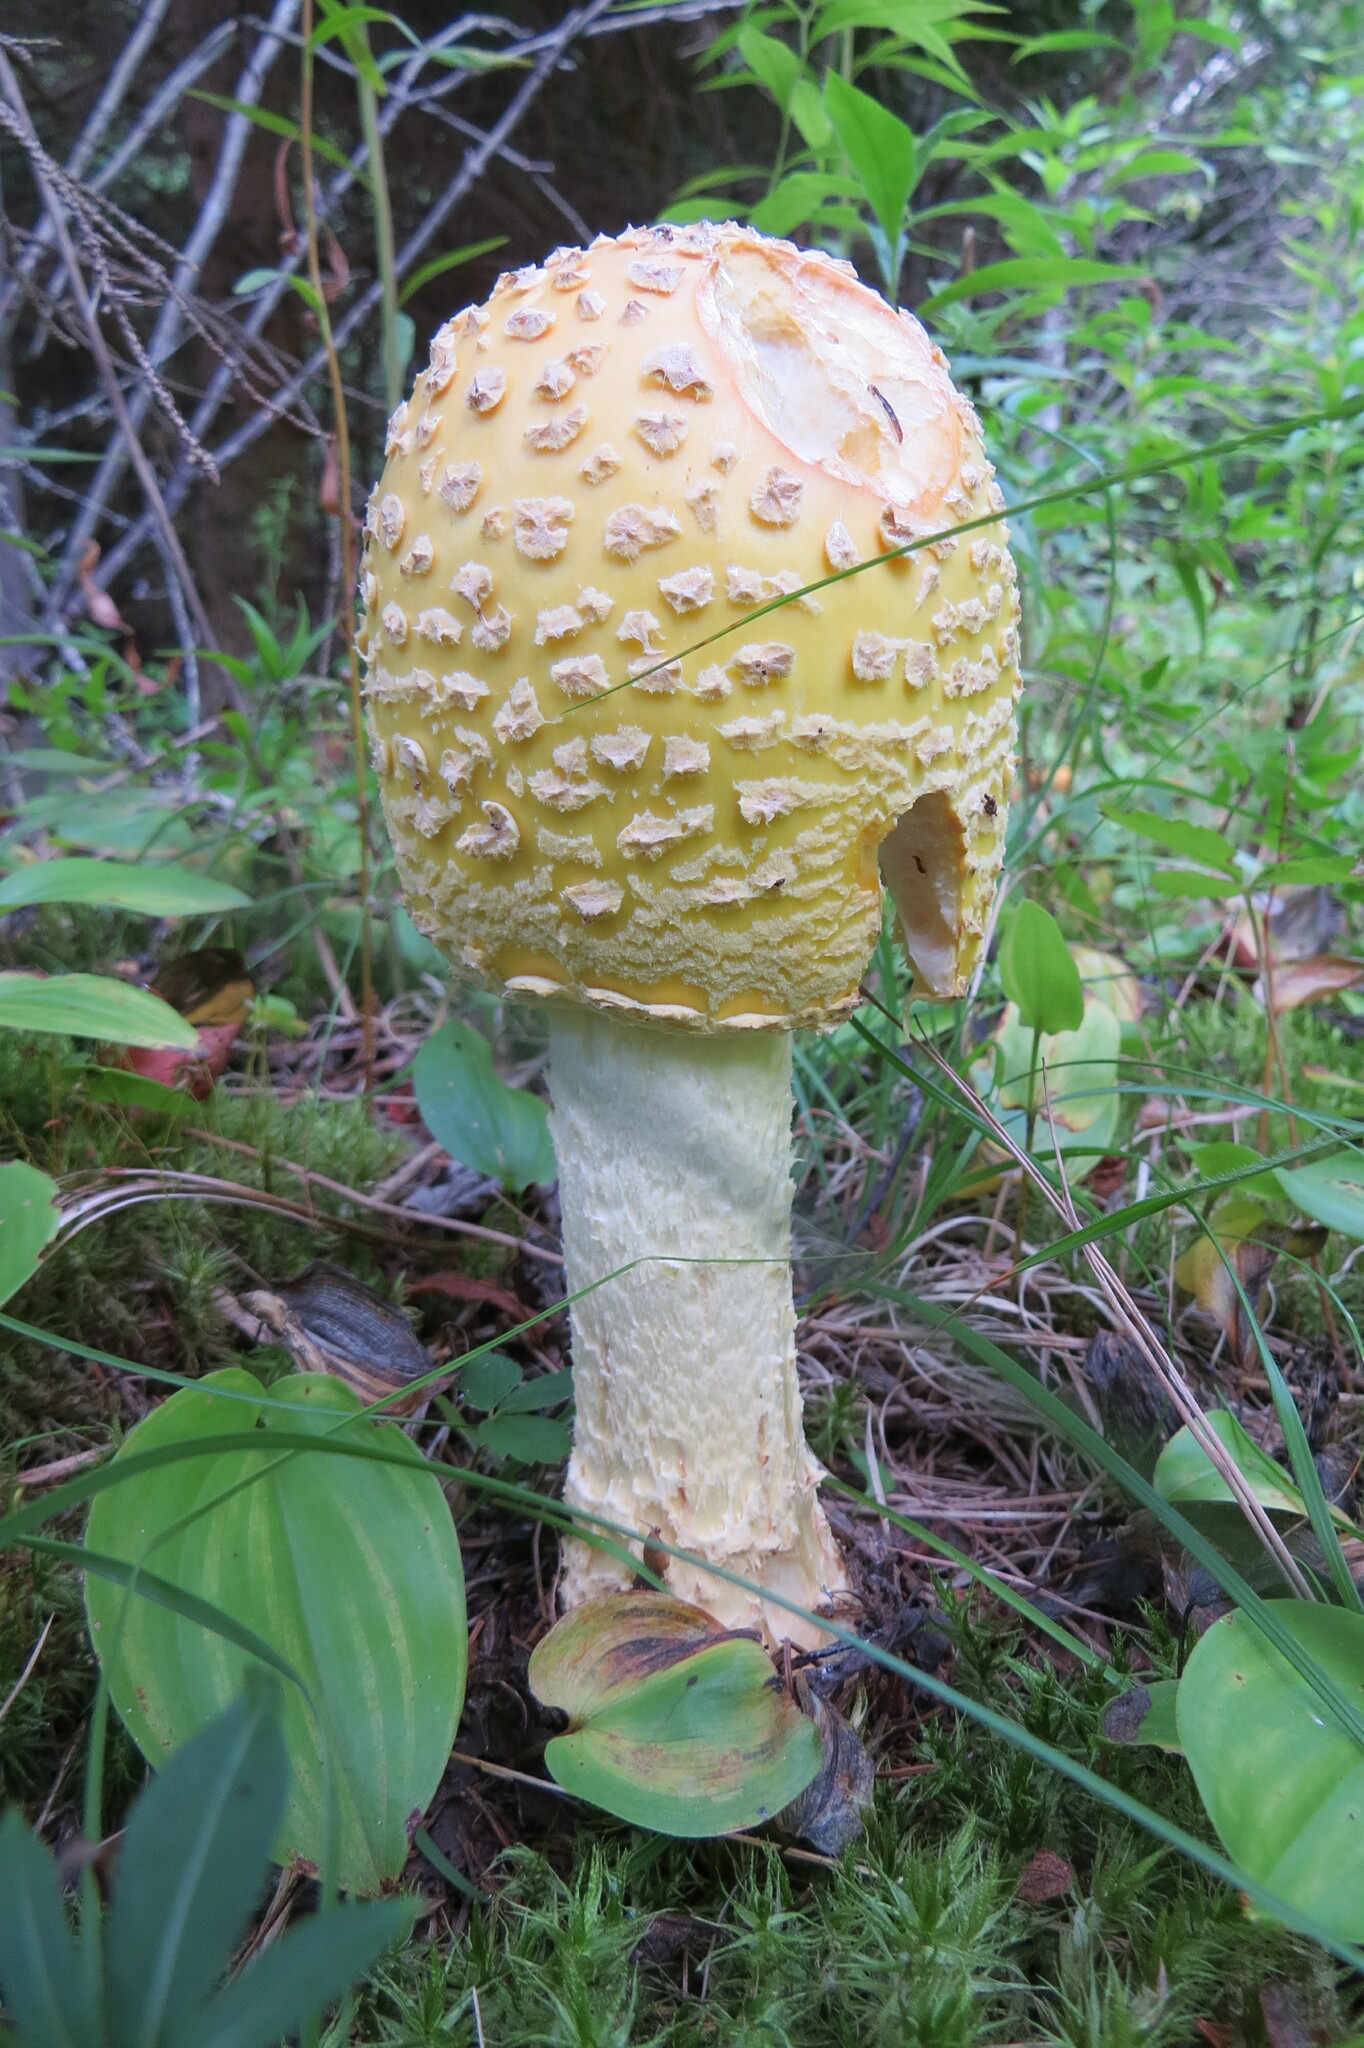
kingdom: Fungi
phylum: Basidiomycota
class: Agaricomycetes
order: Agaricales
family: Amanitaceae
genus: Amanita
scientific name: Amanita muscaria
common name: Fly agaric
